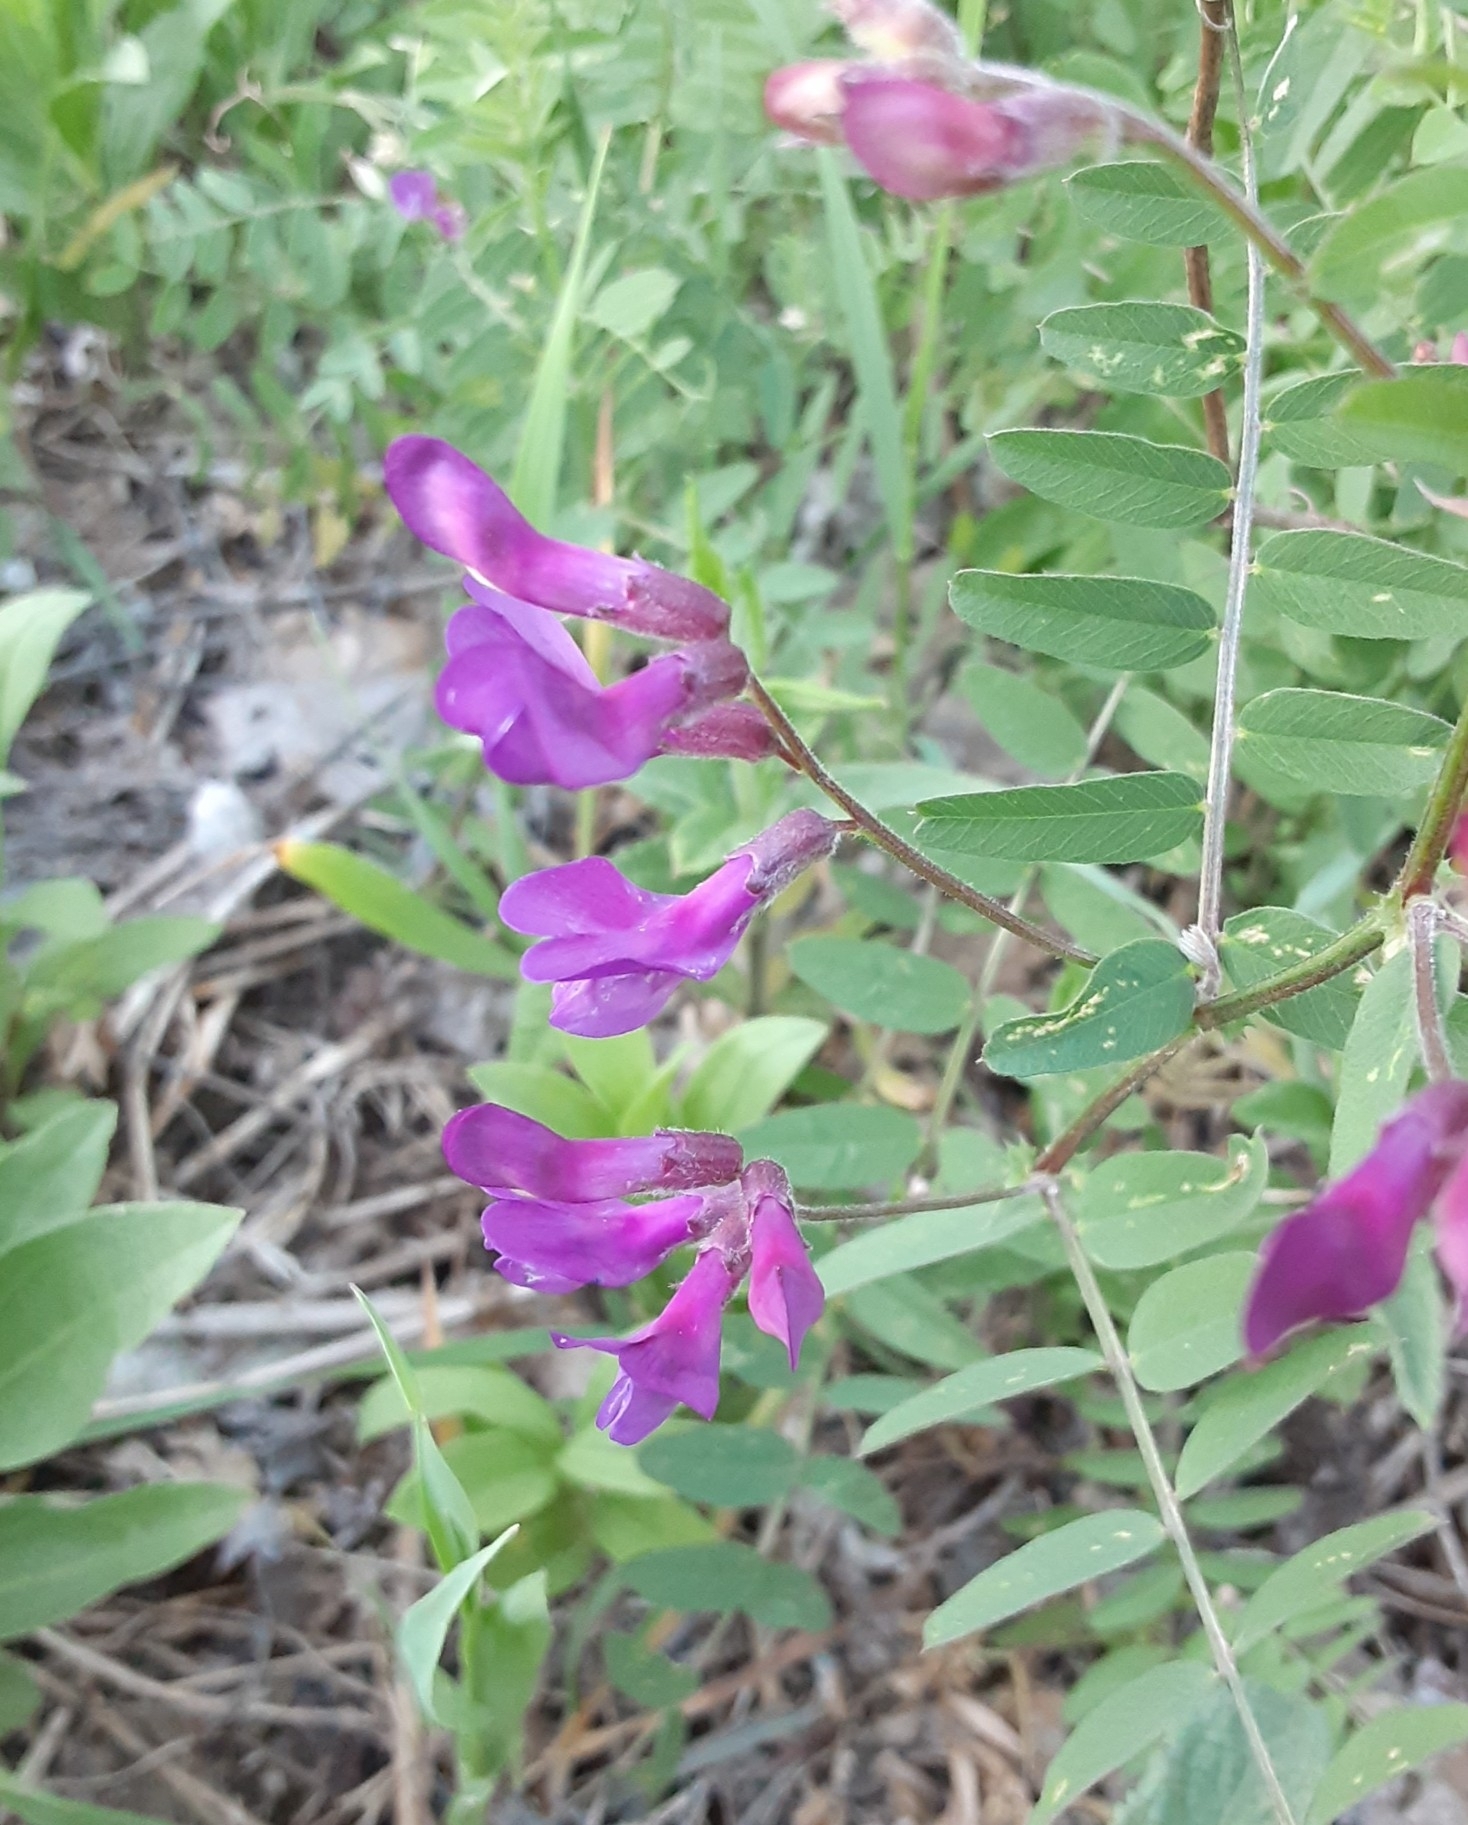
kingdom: Plantae
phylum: Tracheophyta
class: Magnoliopsida
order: Fabales
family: Fabaceae
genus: Vicia
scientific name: Vicia americana
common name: American vetch
